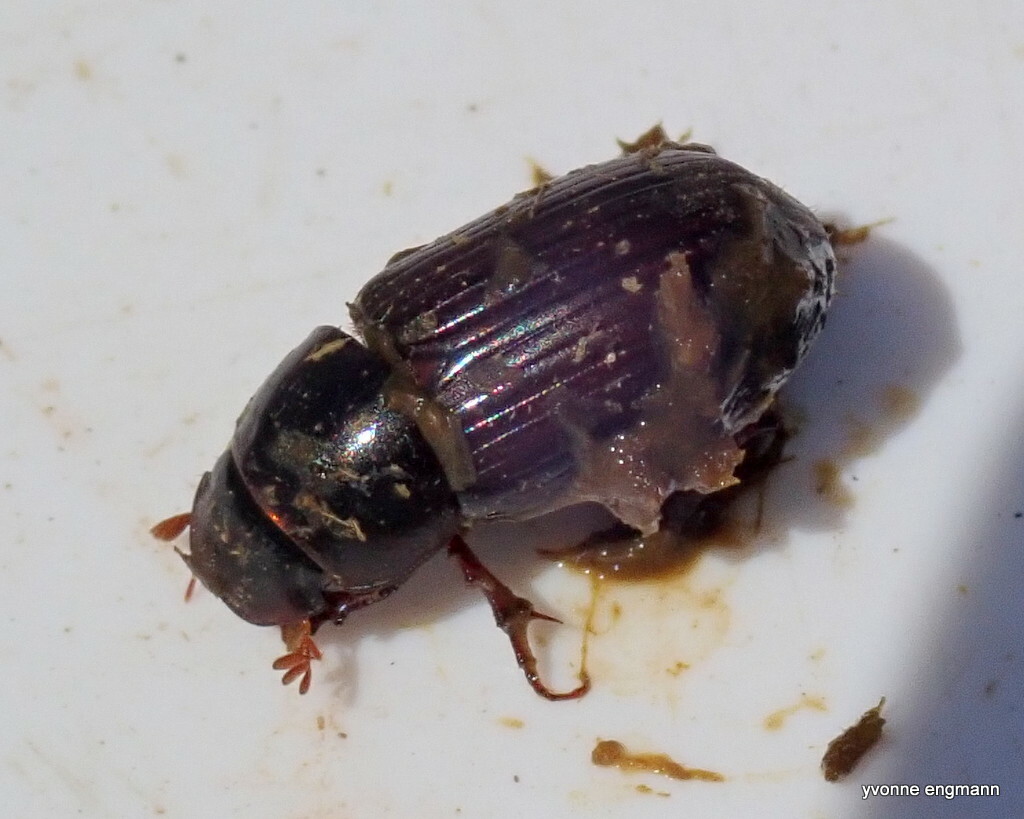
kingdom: Animalia
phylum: Arthropoda
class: Insecta
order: Coleoptera
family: Scarabaeidae
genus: Acrossus
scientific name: Acrossus rufipes
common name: Night-flying dung beetle
